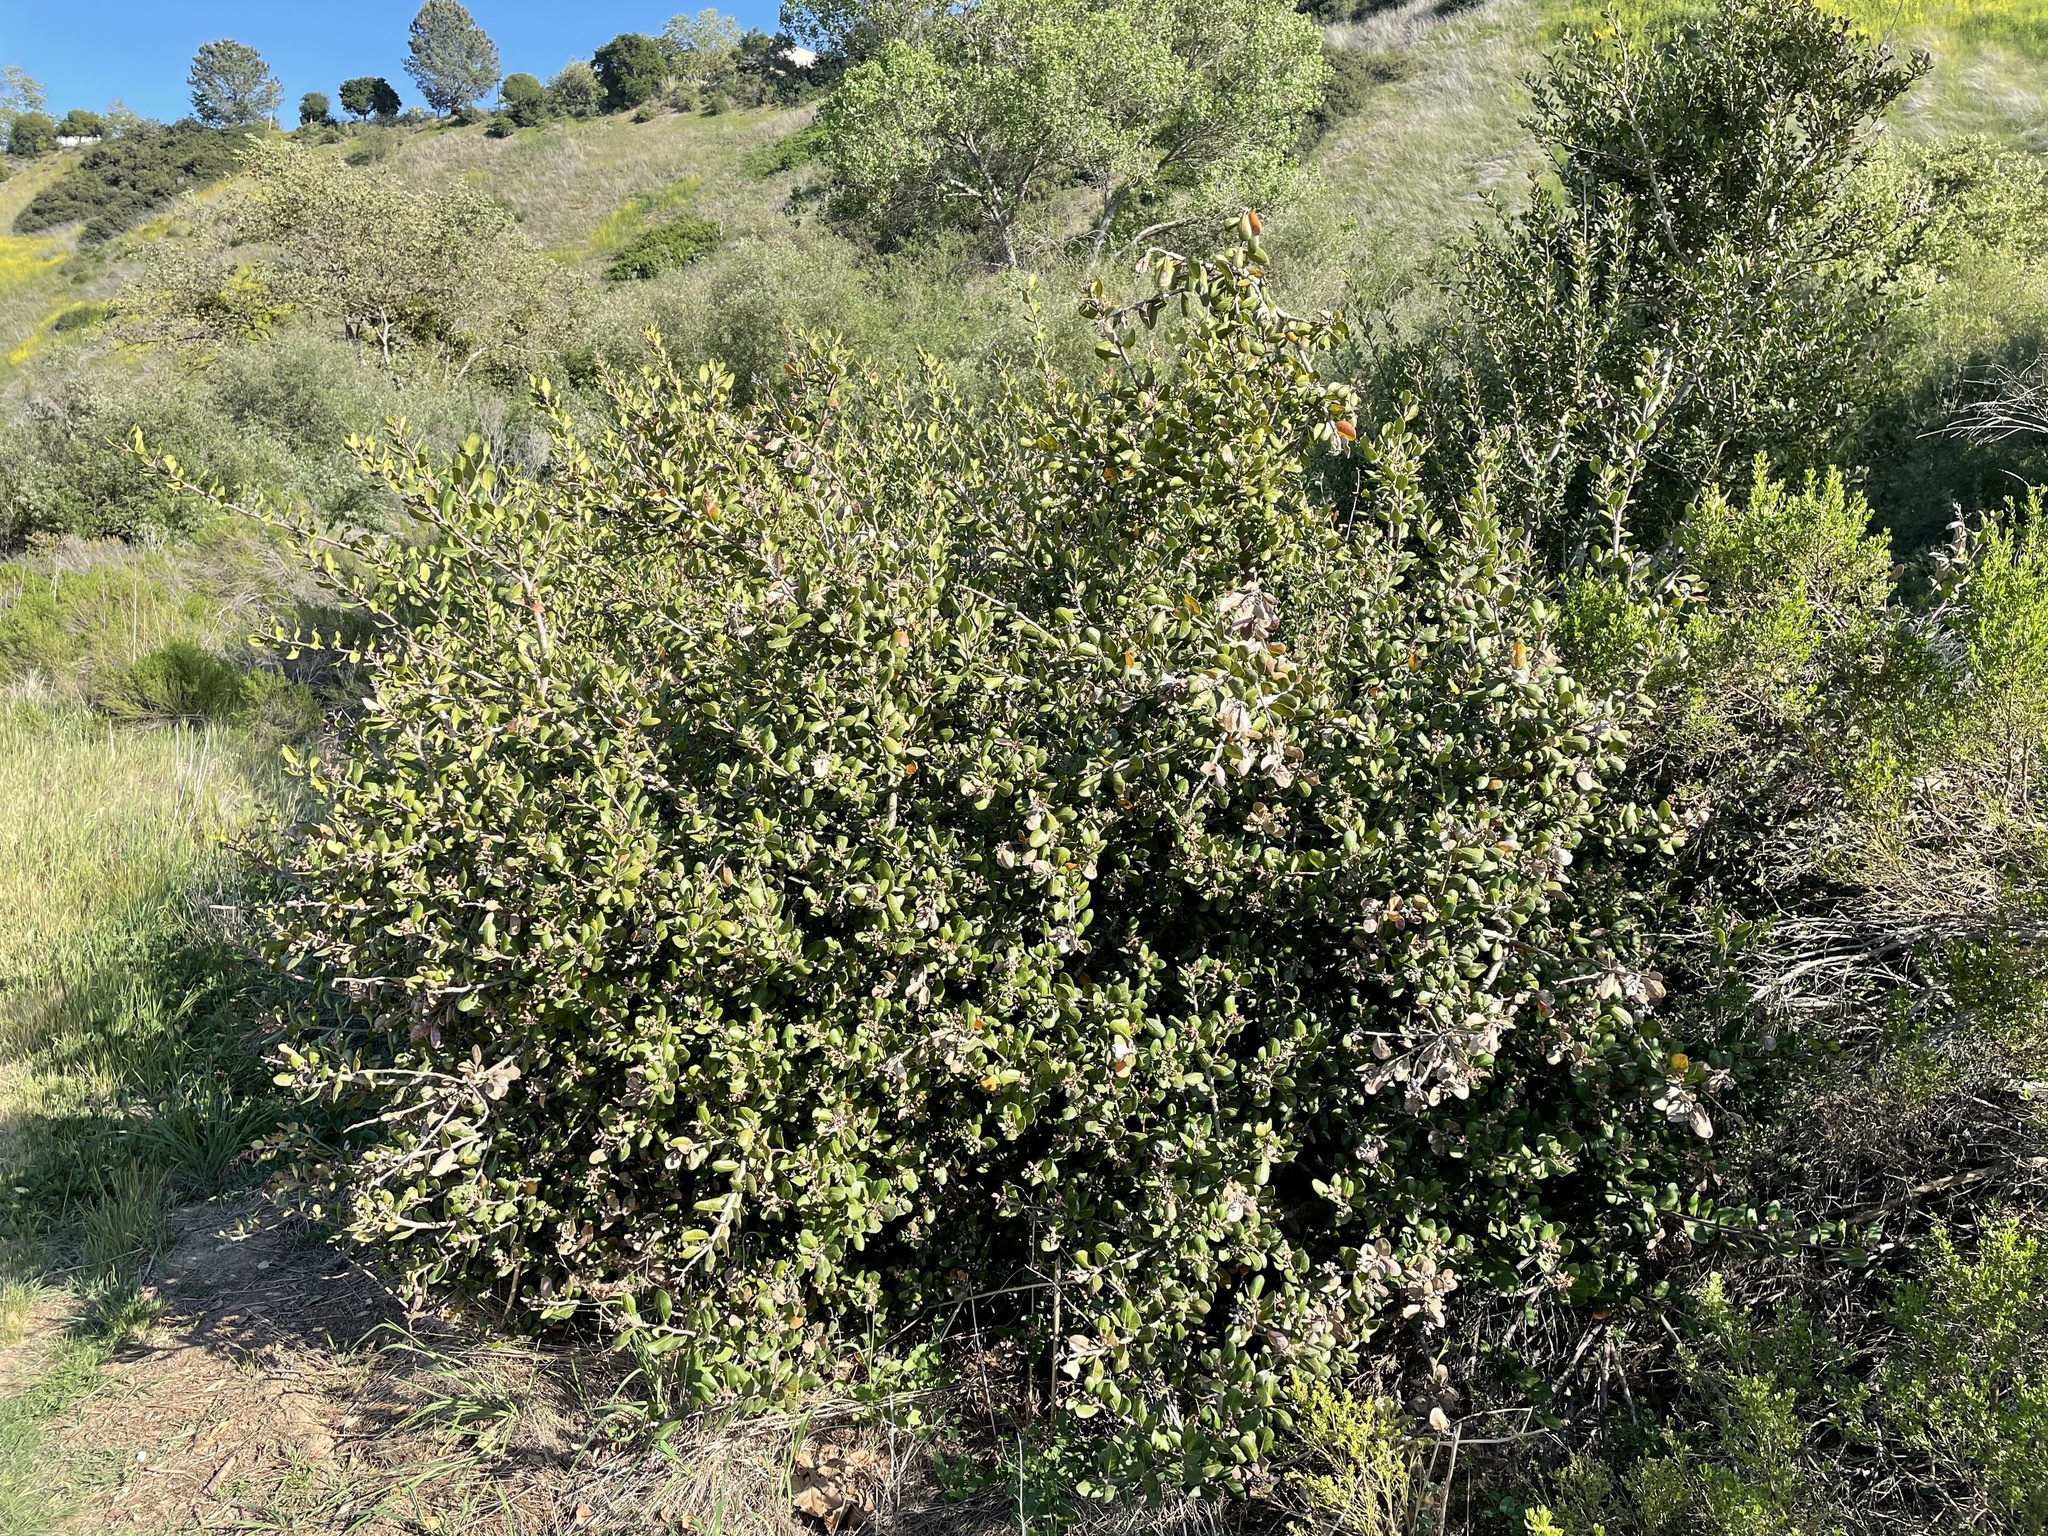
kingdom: Plantae
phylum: Tracheophyta
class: Magnoliopsida
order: Sapindales
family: Anacardiaceae
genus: Rhus
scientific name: Rhus integrifolia
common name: Lemonade sumac
